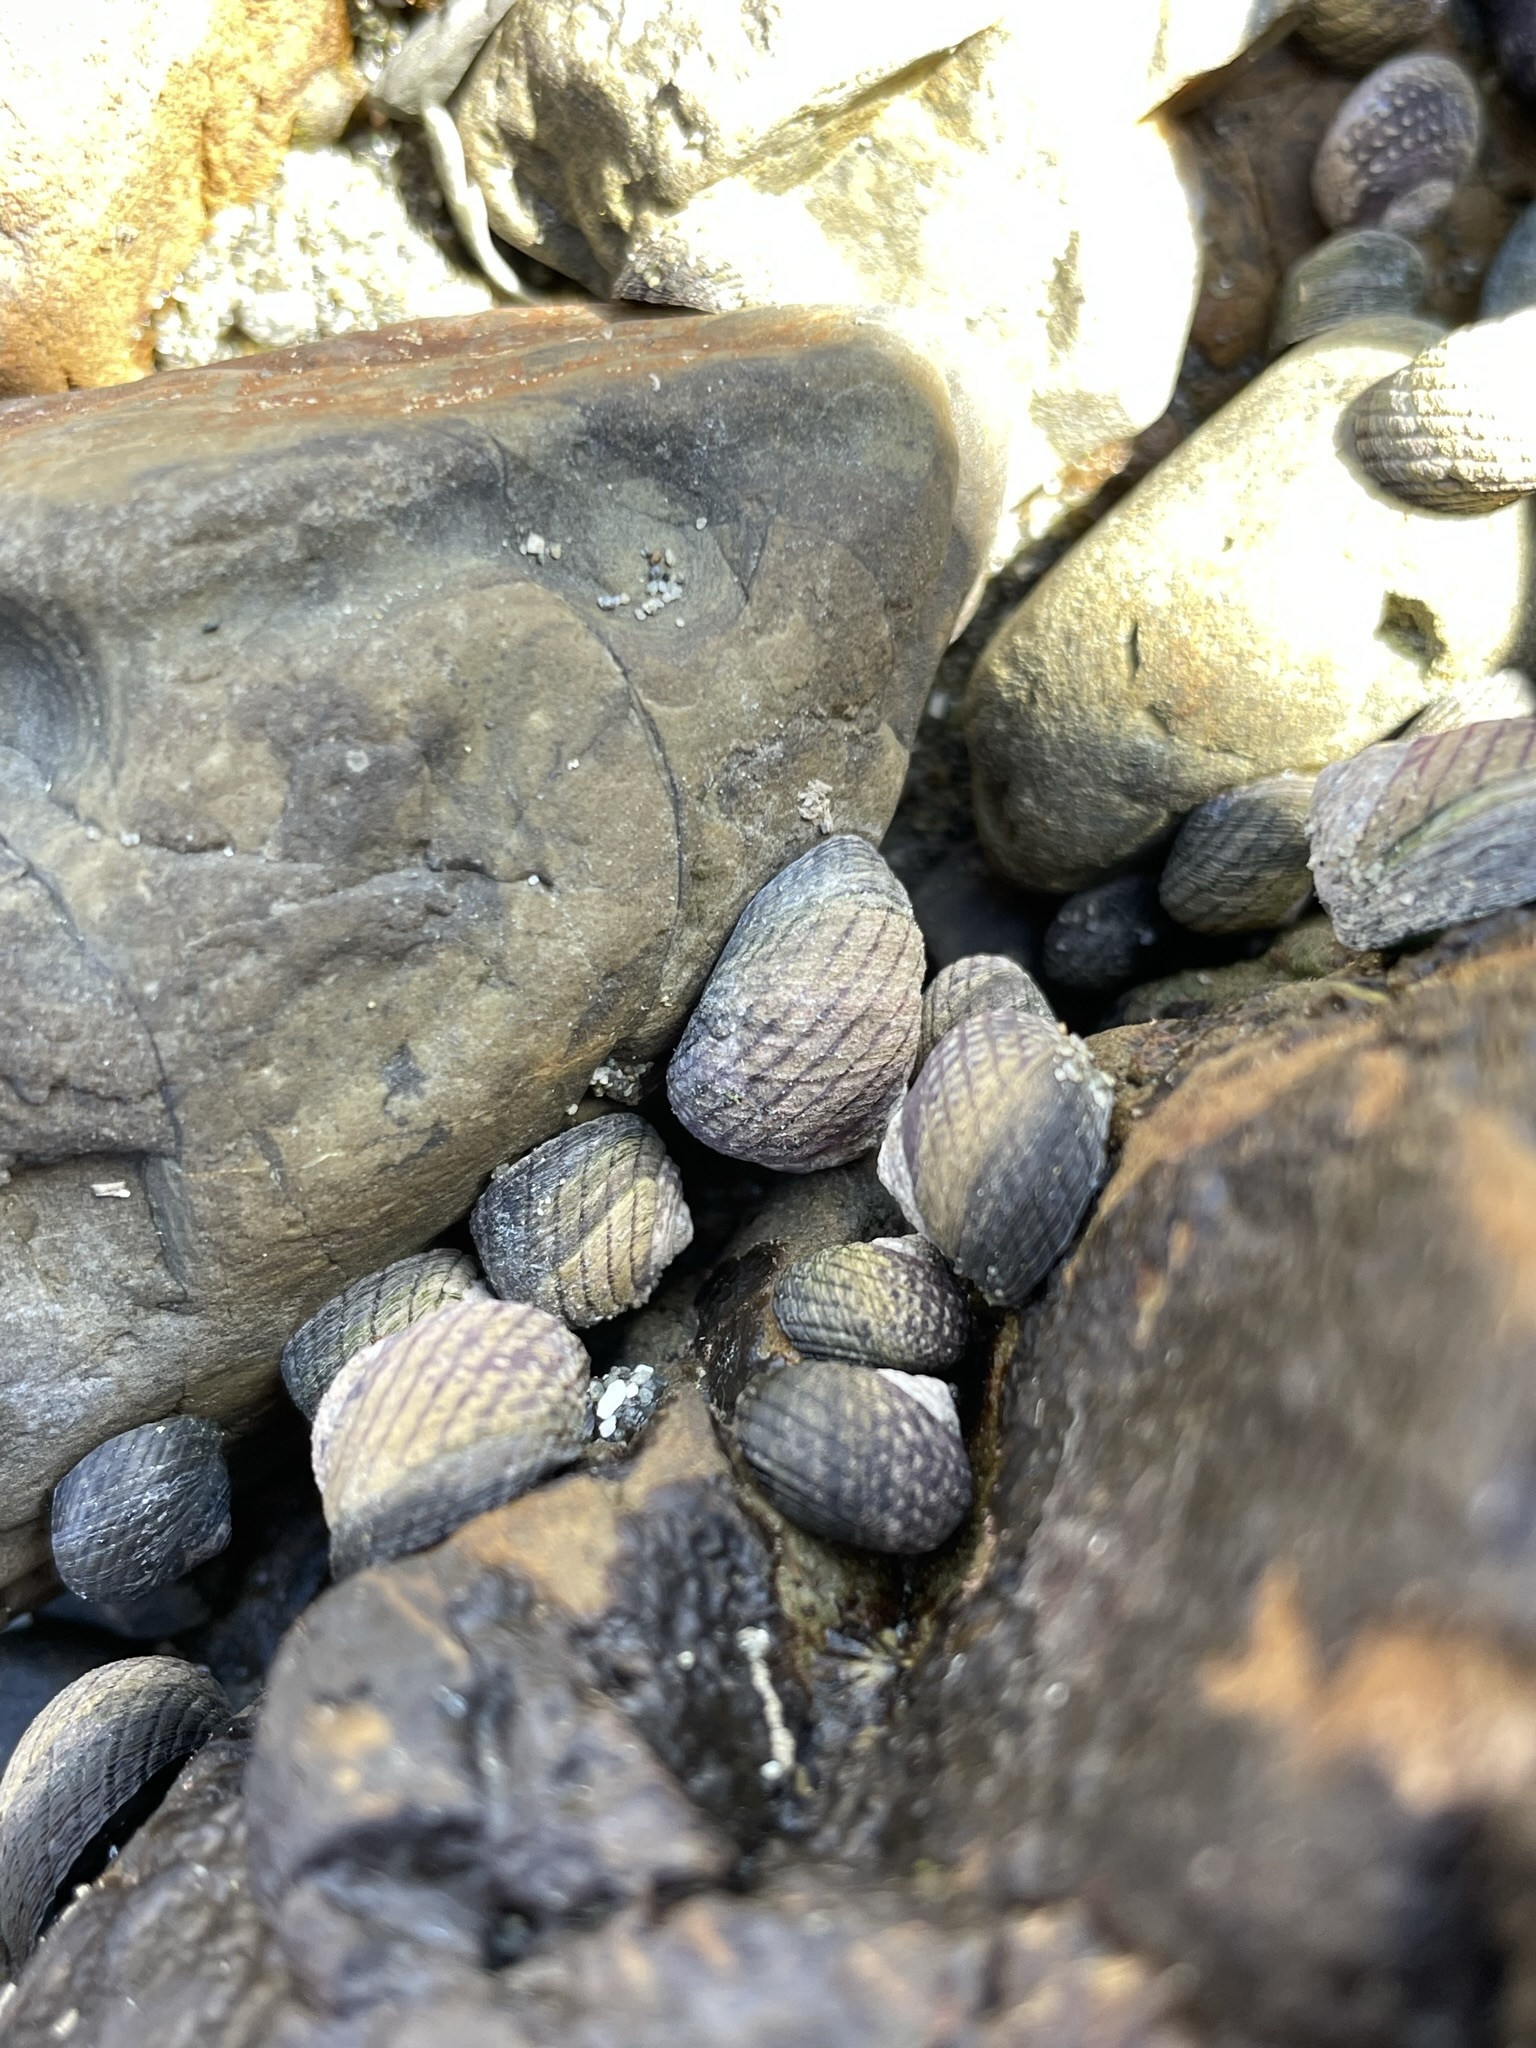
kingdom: Animalia
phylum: Mollusca
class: Gastropoda
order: Trochida
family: Trochidae
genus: Diloma
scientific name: Diloma aethiops
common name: Scorched monodont
